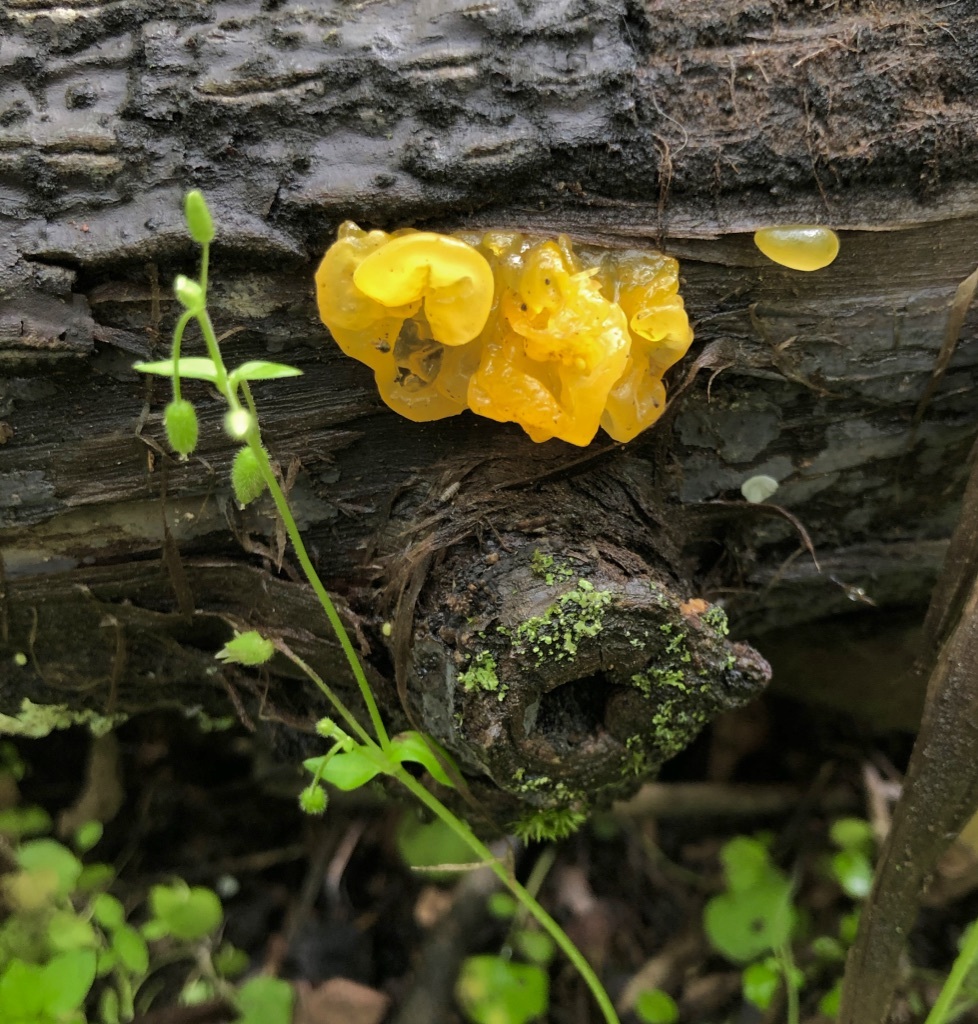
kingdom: Fungi
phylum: Basidiomycota
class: Tremellomycetes
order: Tremellales
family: Tremellaceae
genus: Tremella
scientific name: Tremella mesenterica
